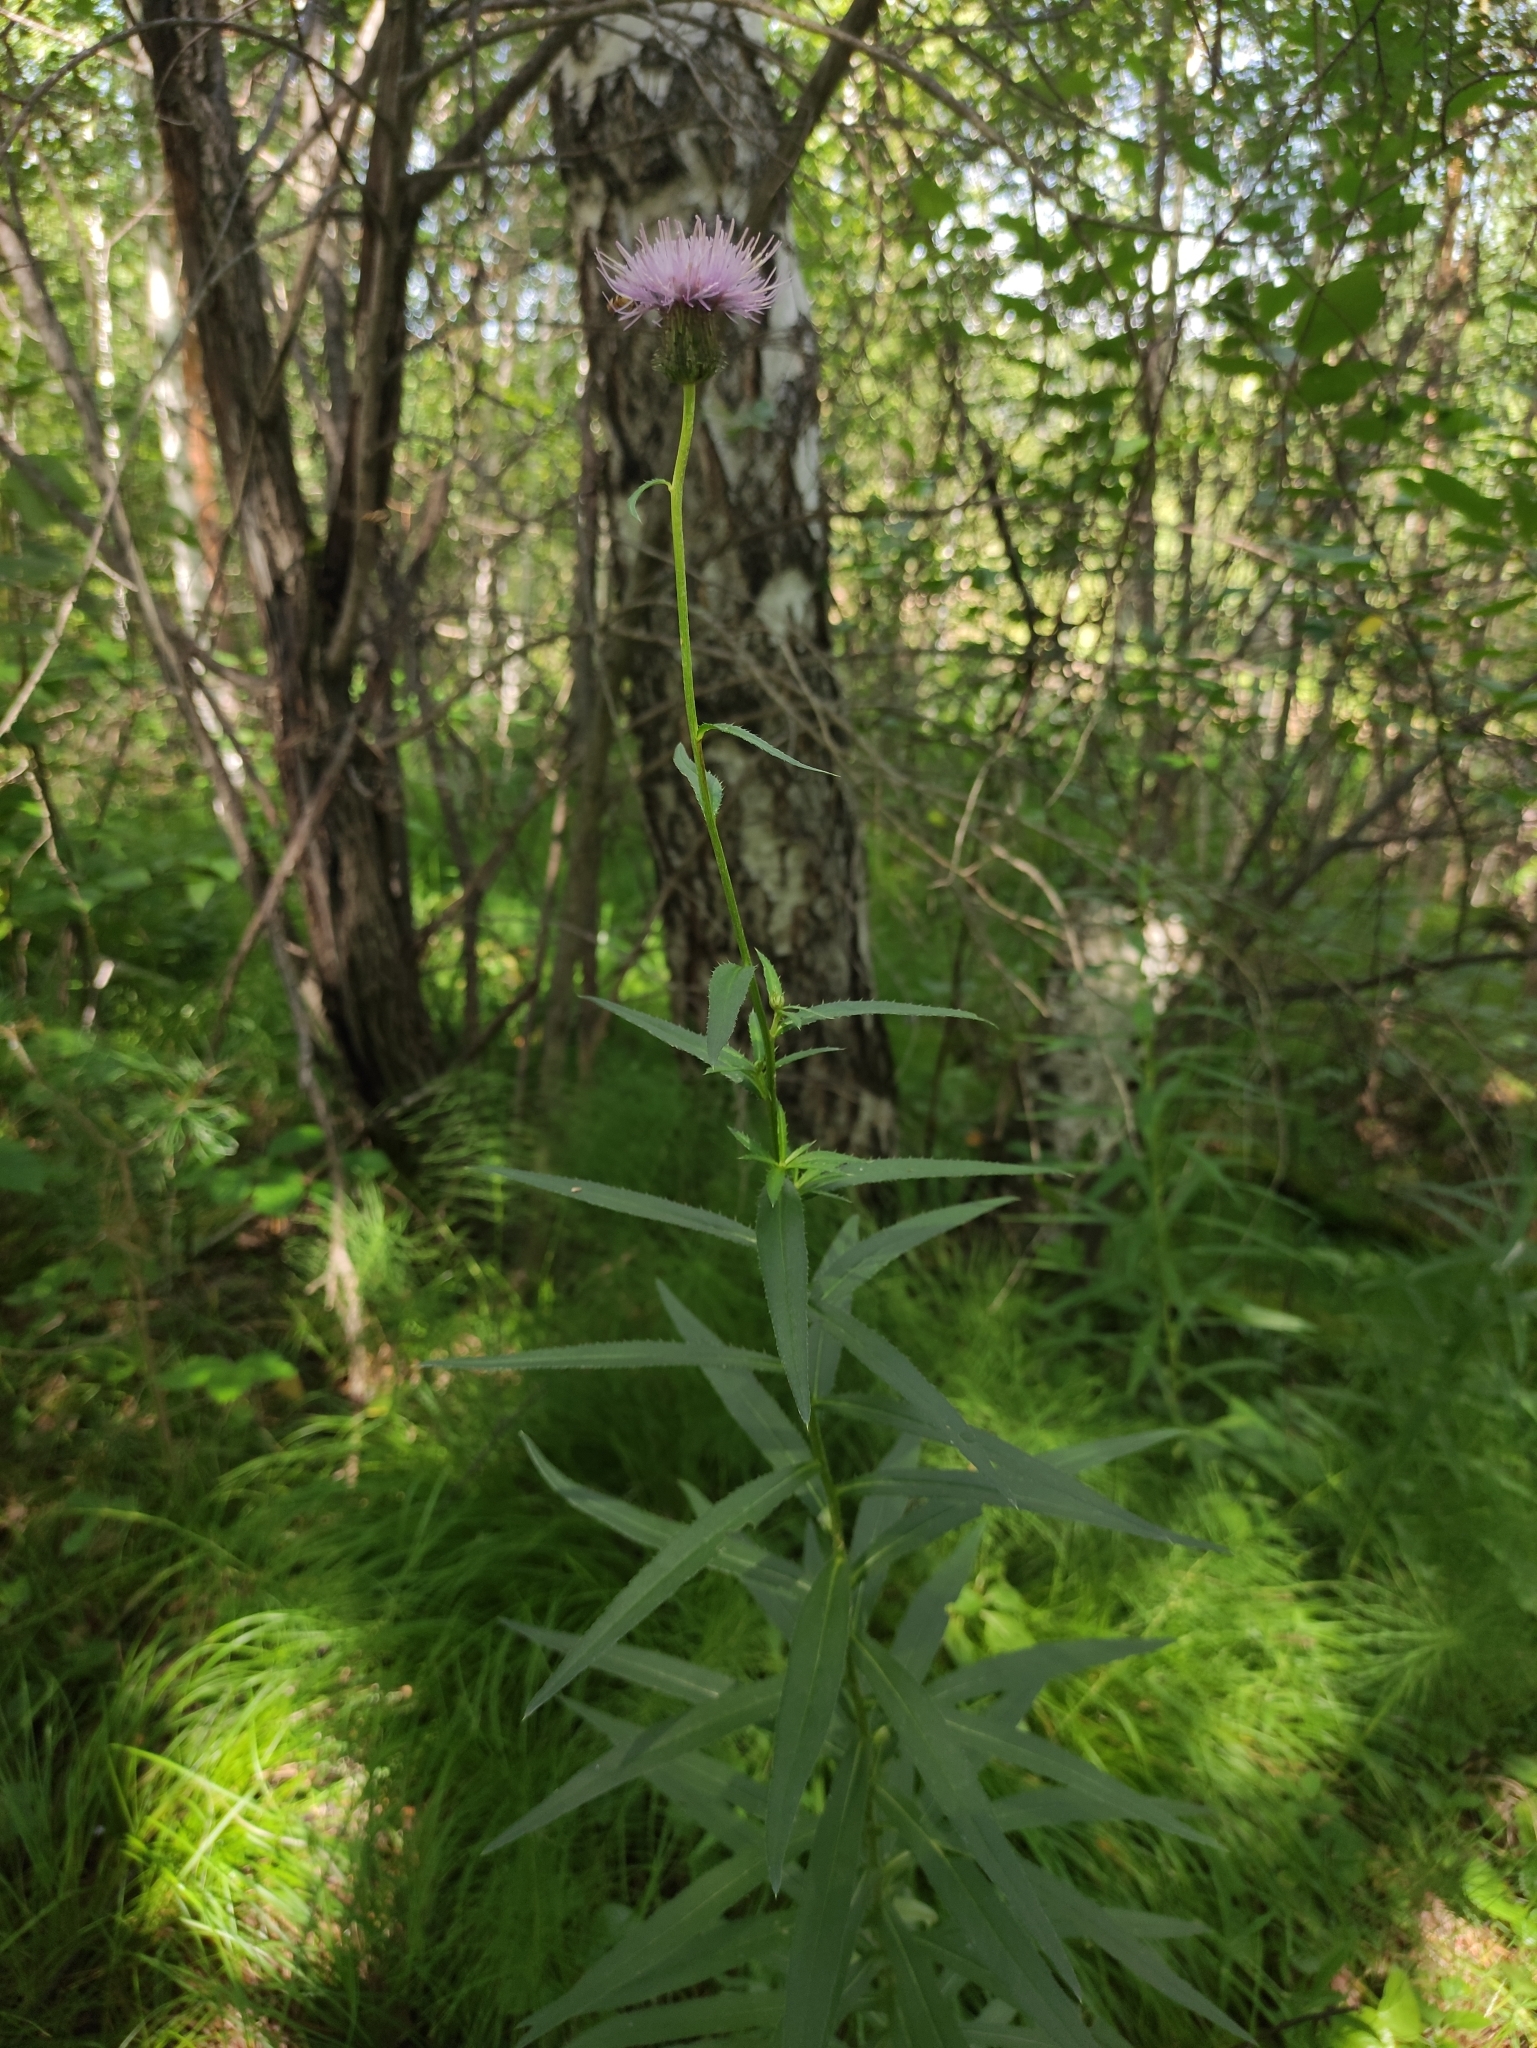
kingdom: Plantae
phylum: Tracheophyta
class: Magnoliopsida
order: Asterales
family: Asteraceae
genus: Cirsium
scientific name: Cirsium serratuloides
